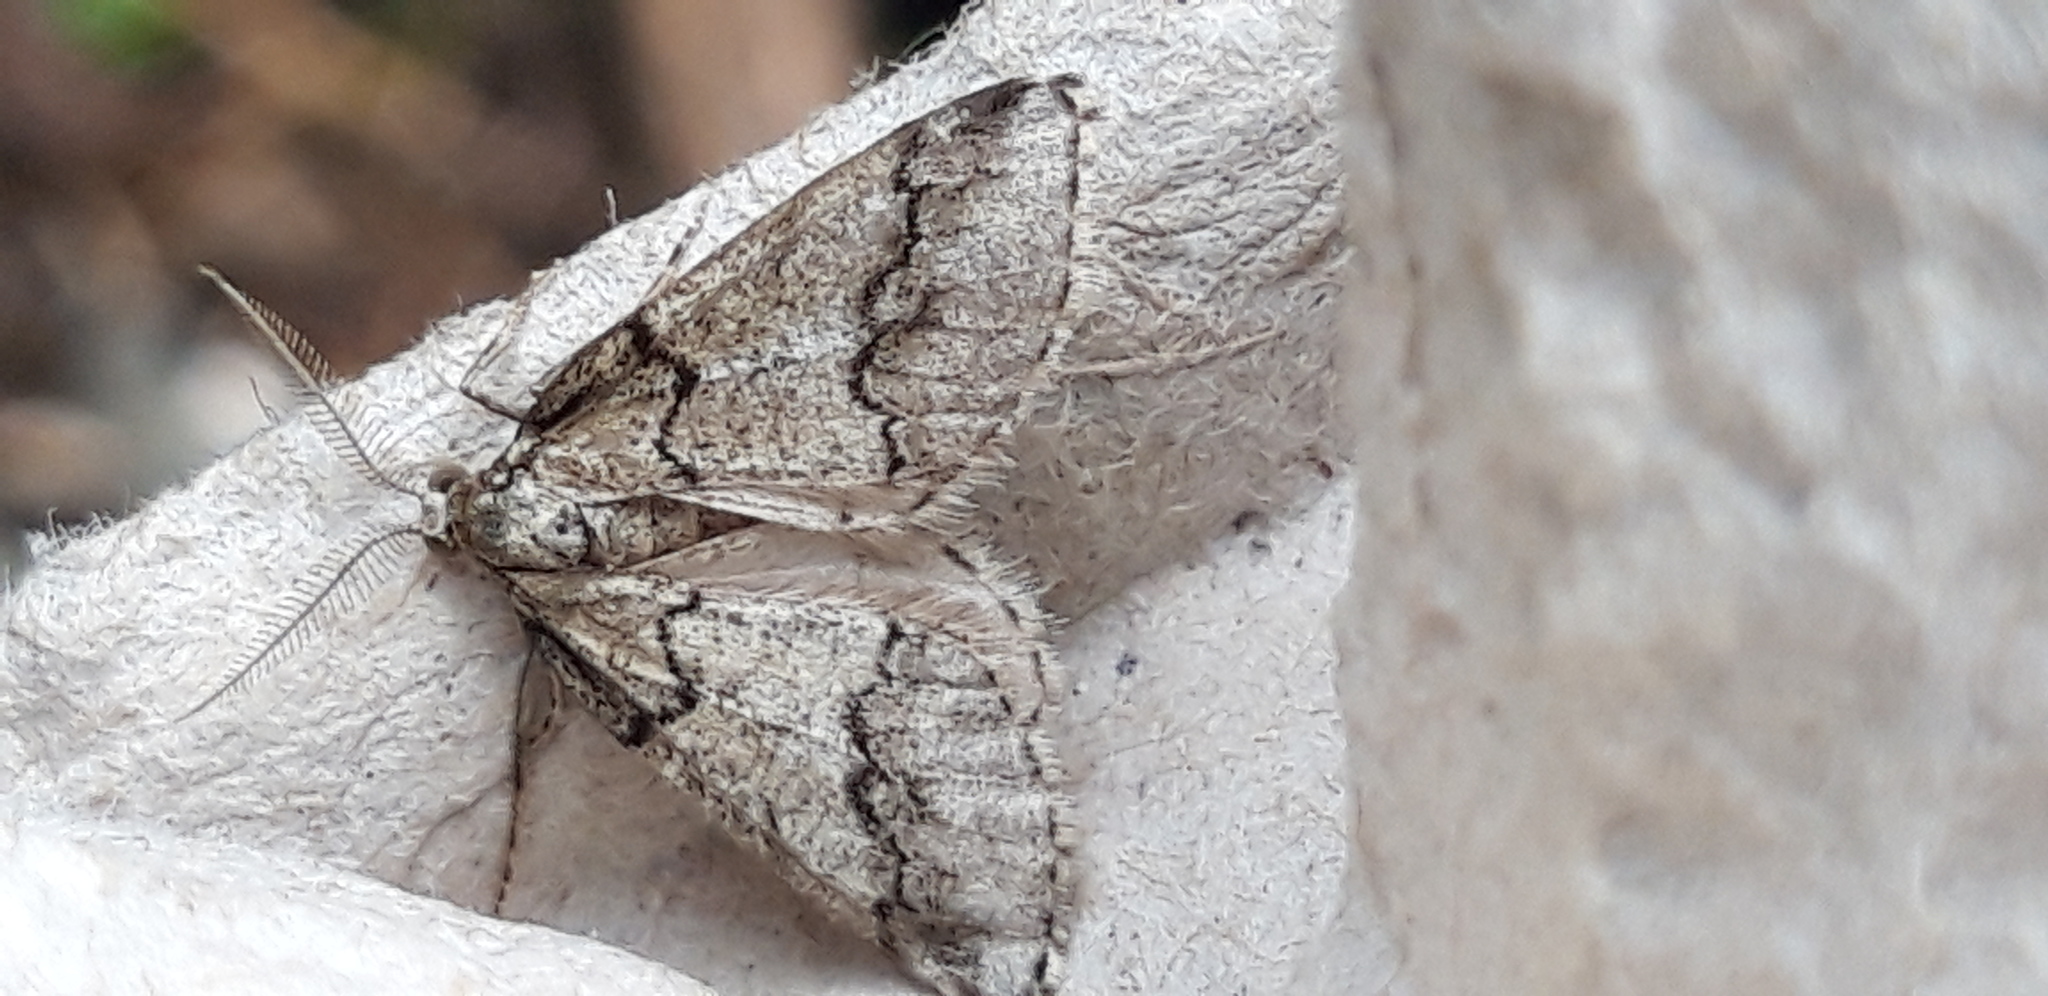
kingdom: Animalia
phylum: Arthropoda
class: Insecta
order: Lepidoptera
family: Geometridae
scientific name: Geometridae
